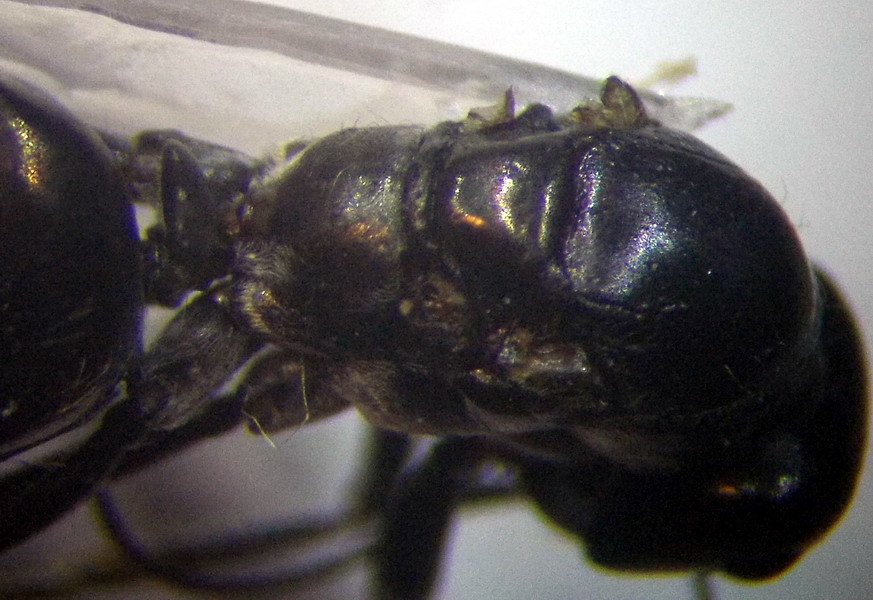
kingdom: Animalia
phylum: Arthropoda
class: Insecta
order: Hymenoptera
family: Formicidae
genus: Cataglyphis
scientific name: Cataglyphis aenescens
